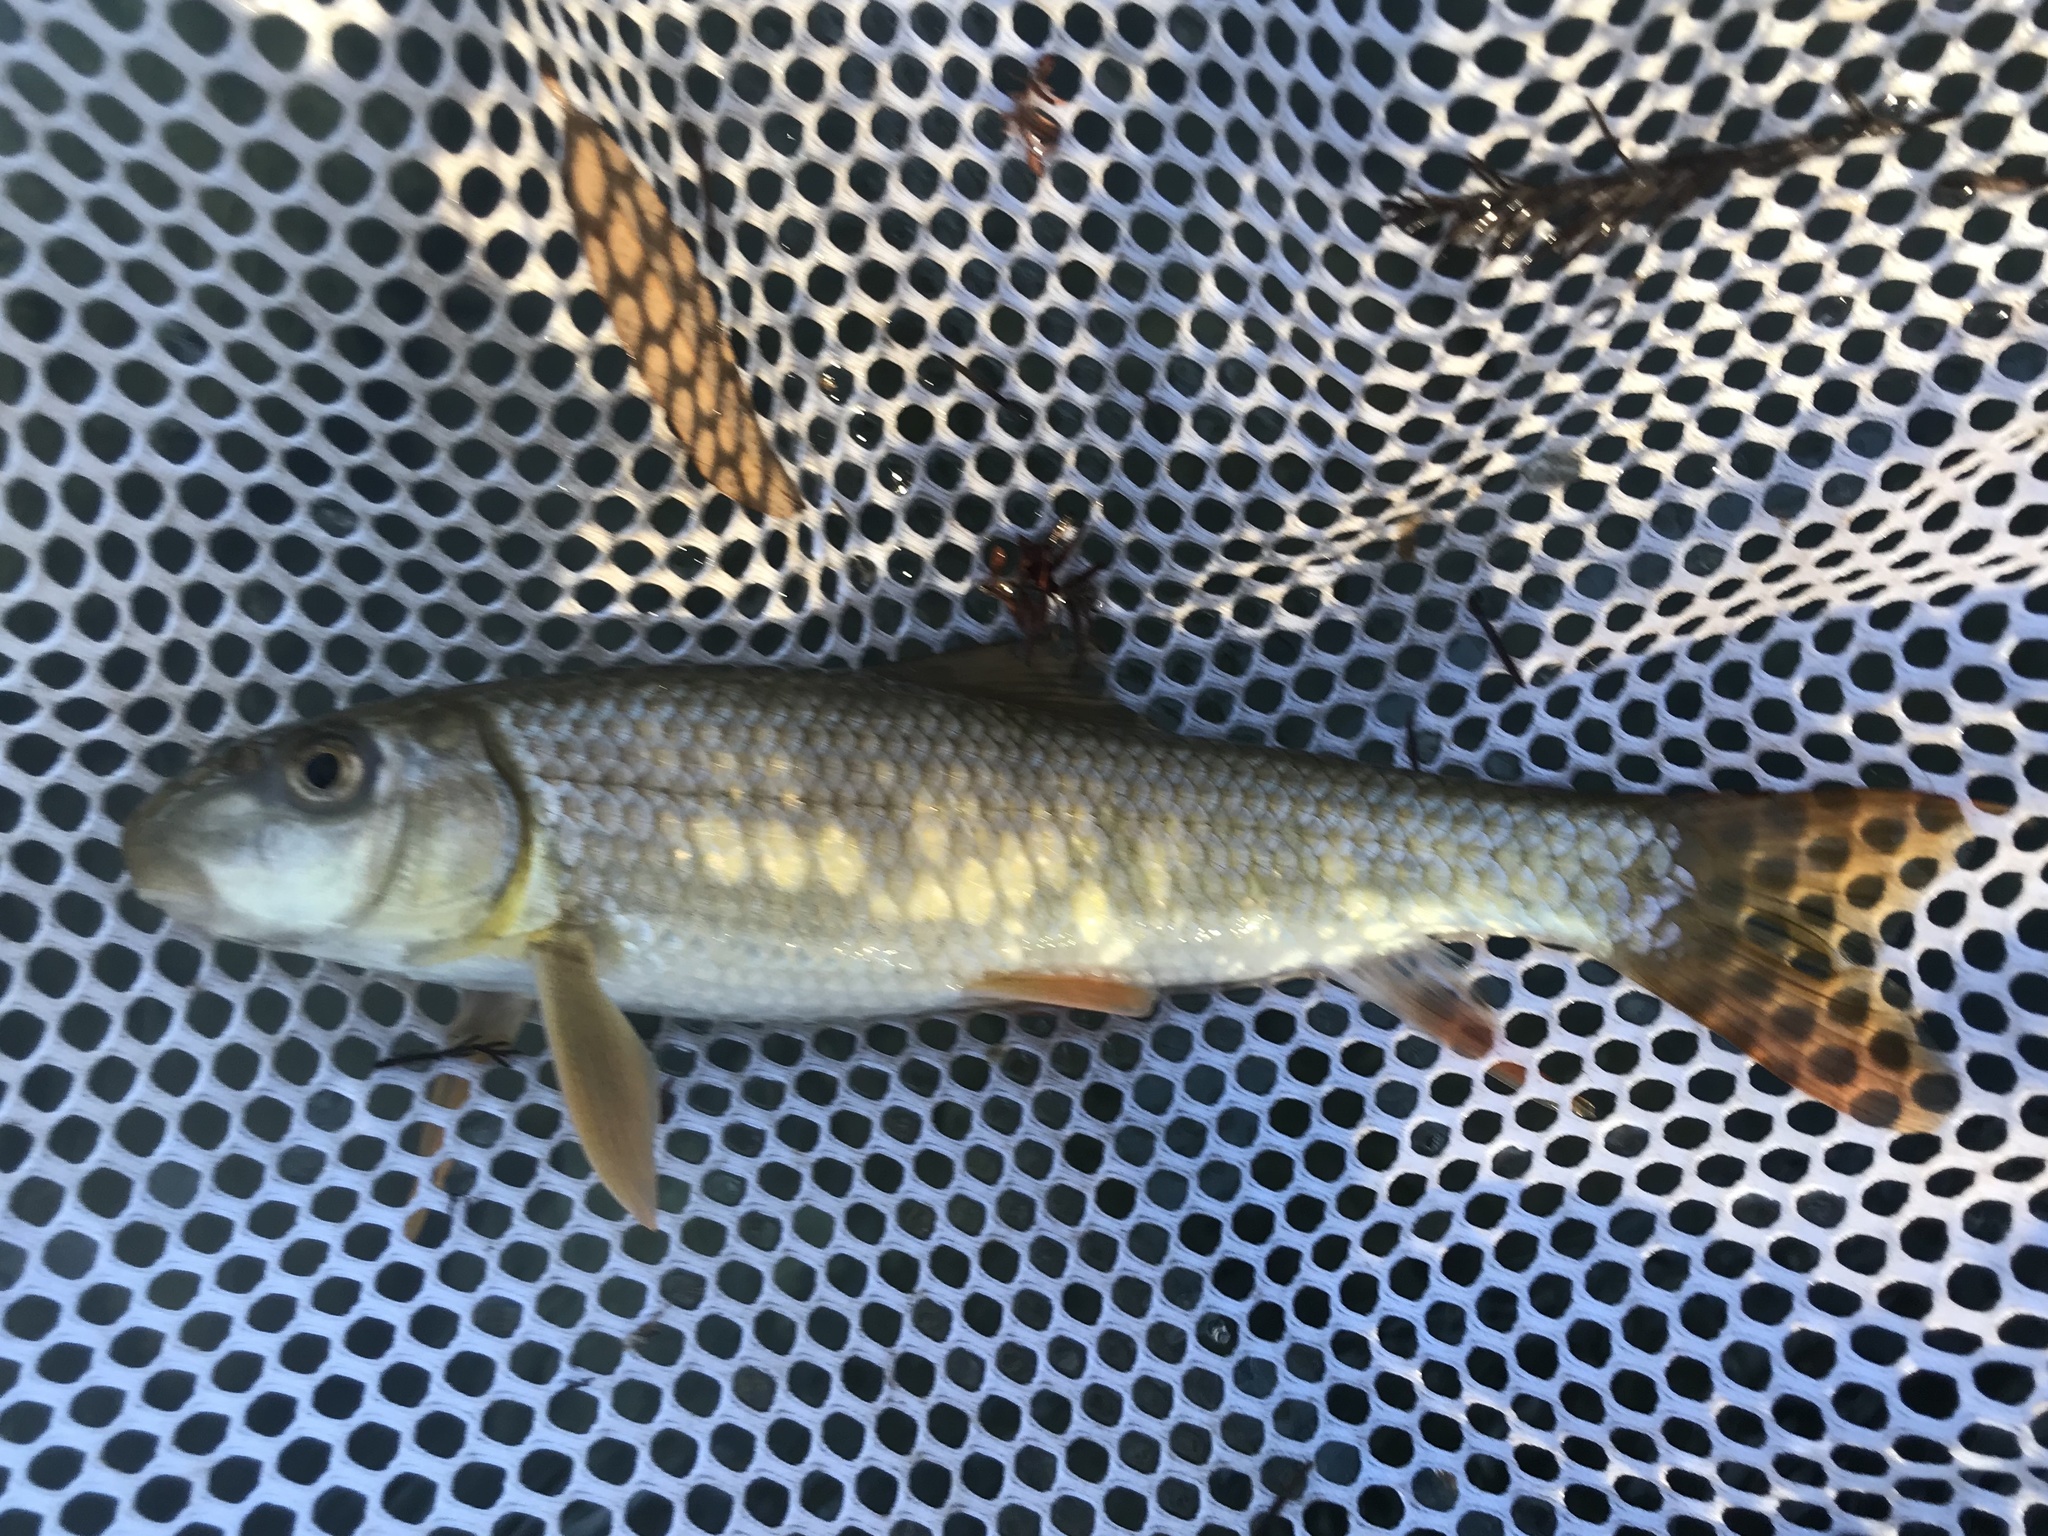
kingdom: Animalia
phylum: Chordata
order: Cypriniformes
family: Catostomidae
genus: Moxostoma
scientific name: Moxostoma congestum
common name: Gray redhorse
